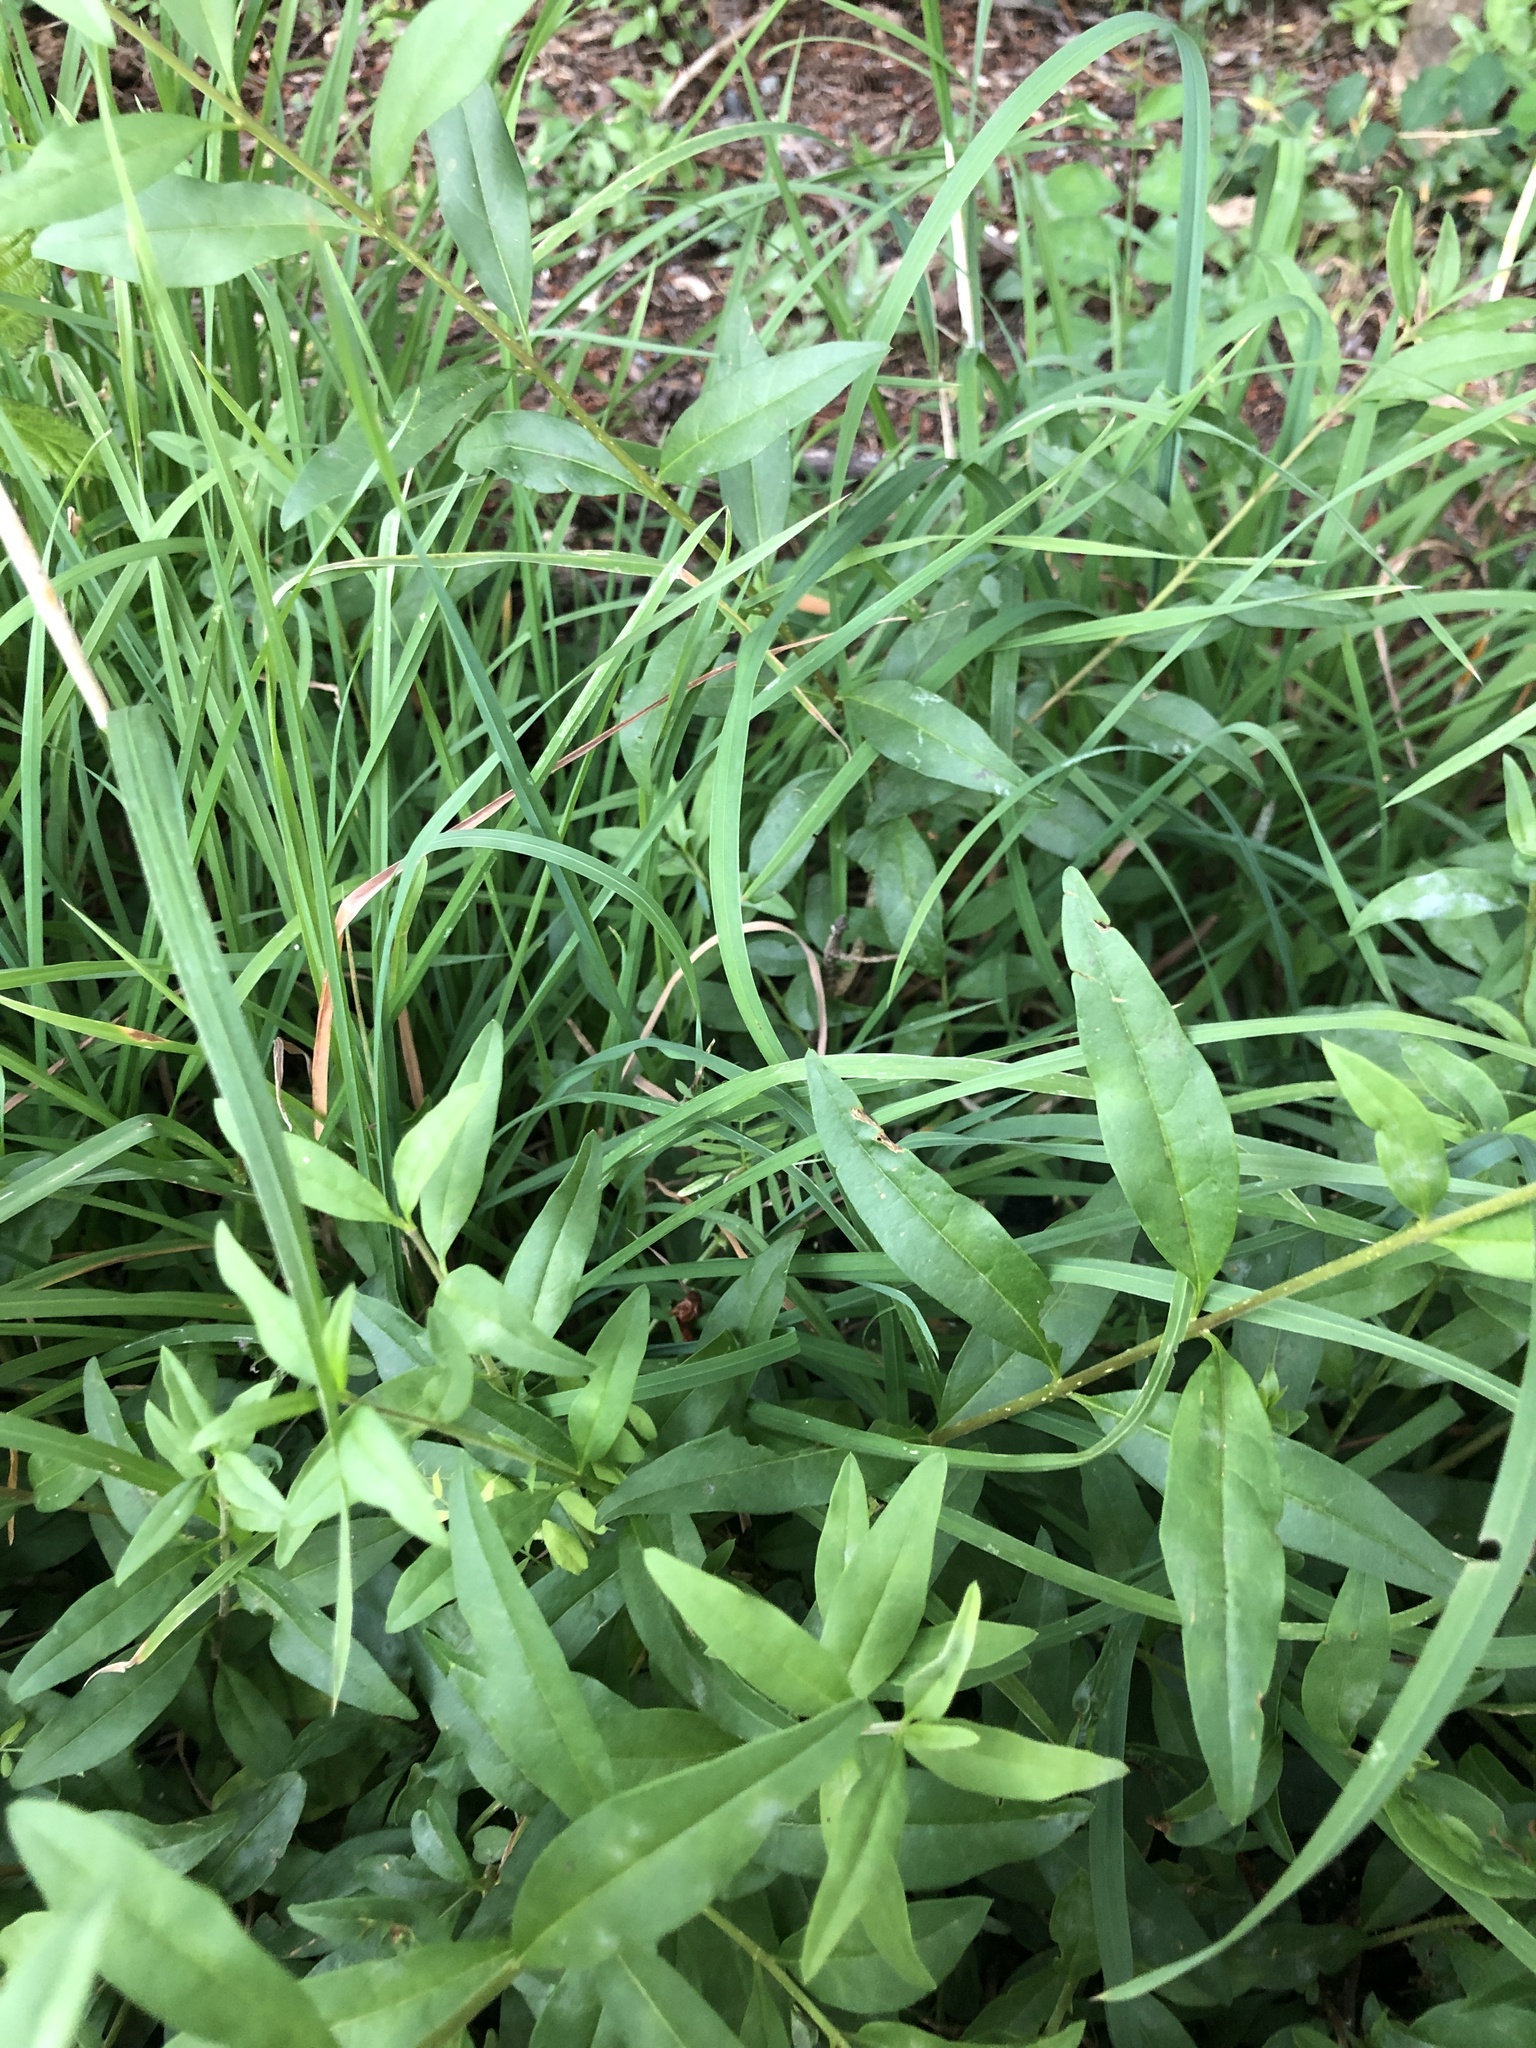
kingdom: Plantae
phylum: Tracheophyta
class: Magnoliopsida
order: Lamiales
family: Oleaceae
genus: Ligustrum
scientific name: Ligustrum vulgare
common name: Wild privet
